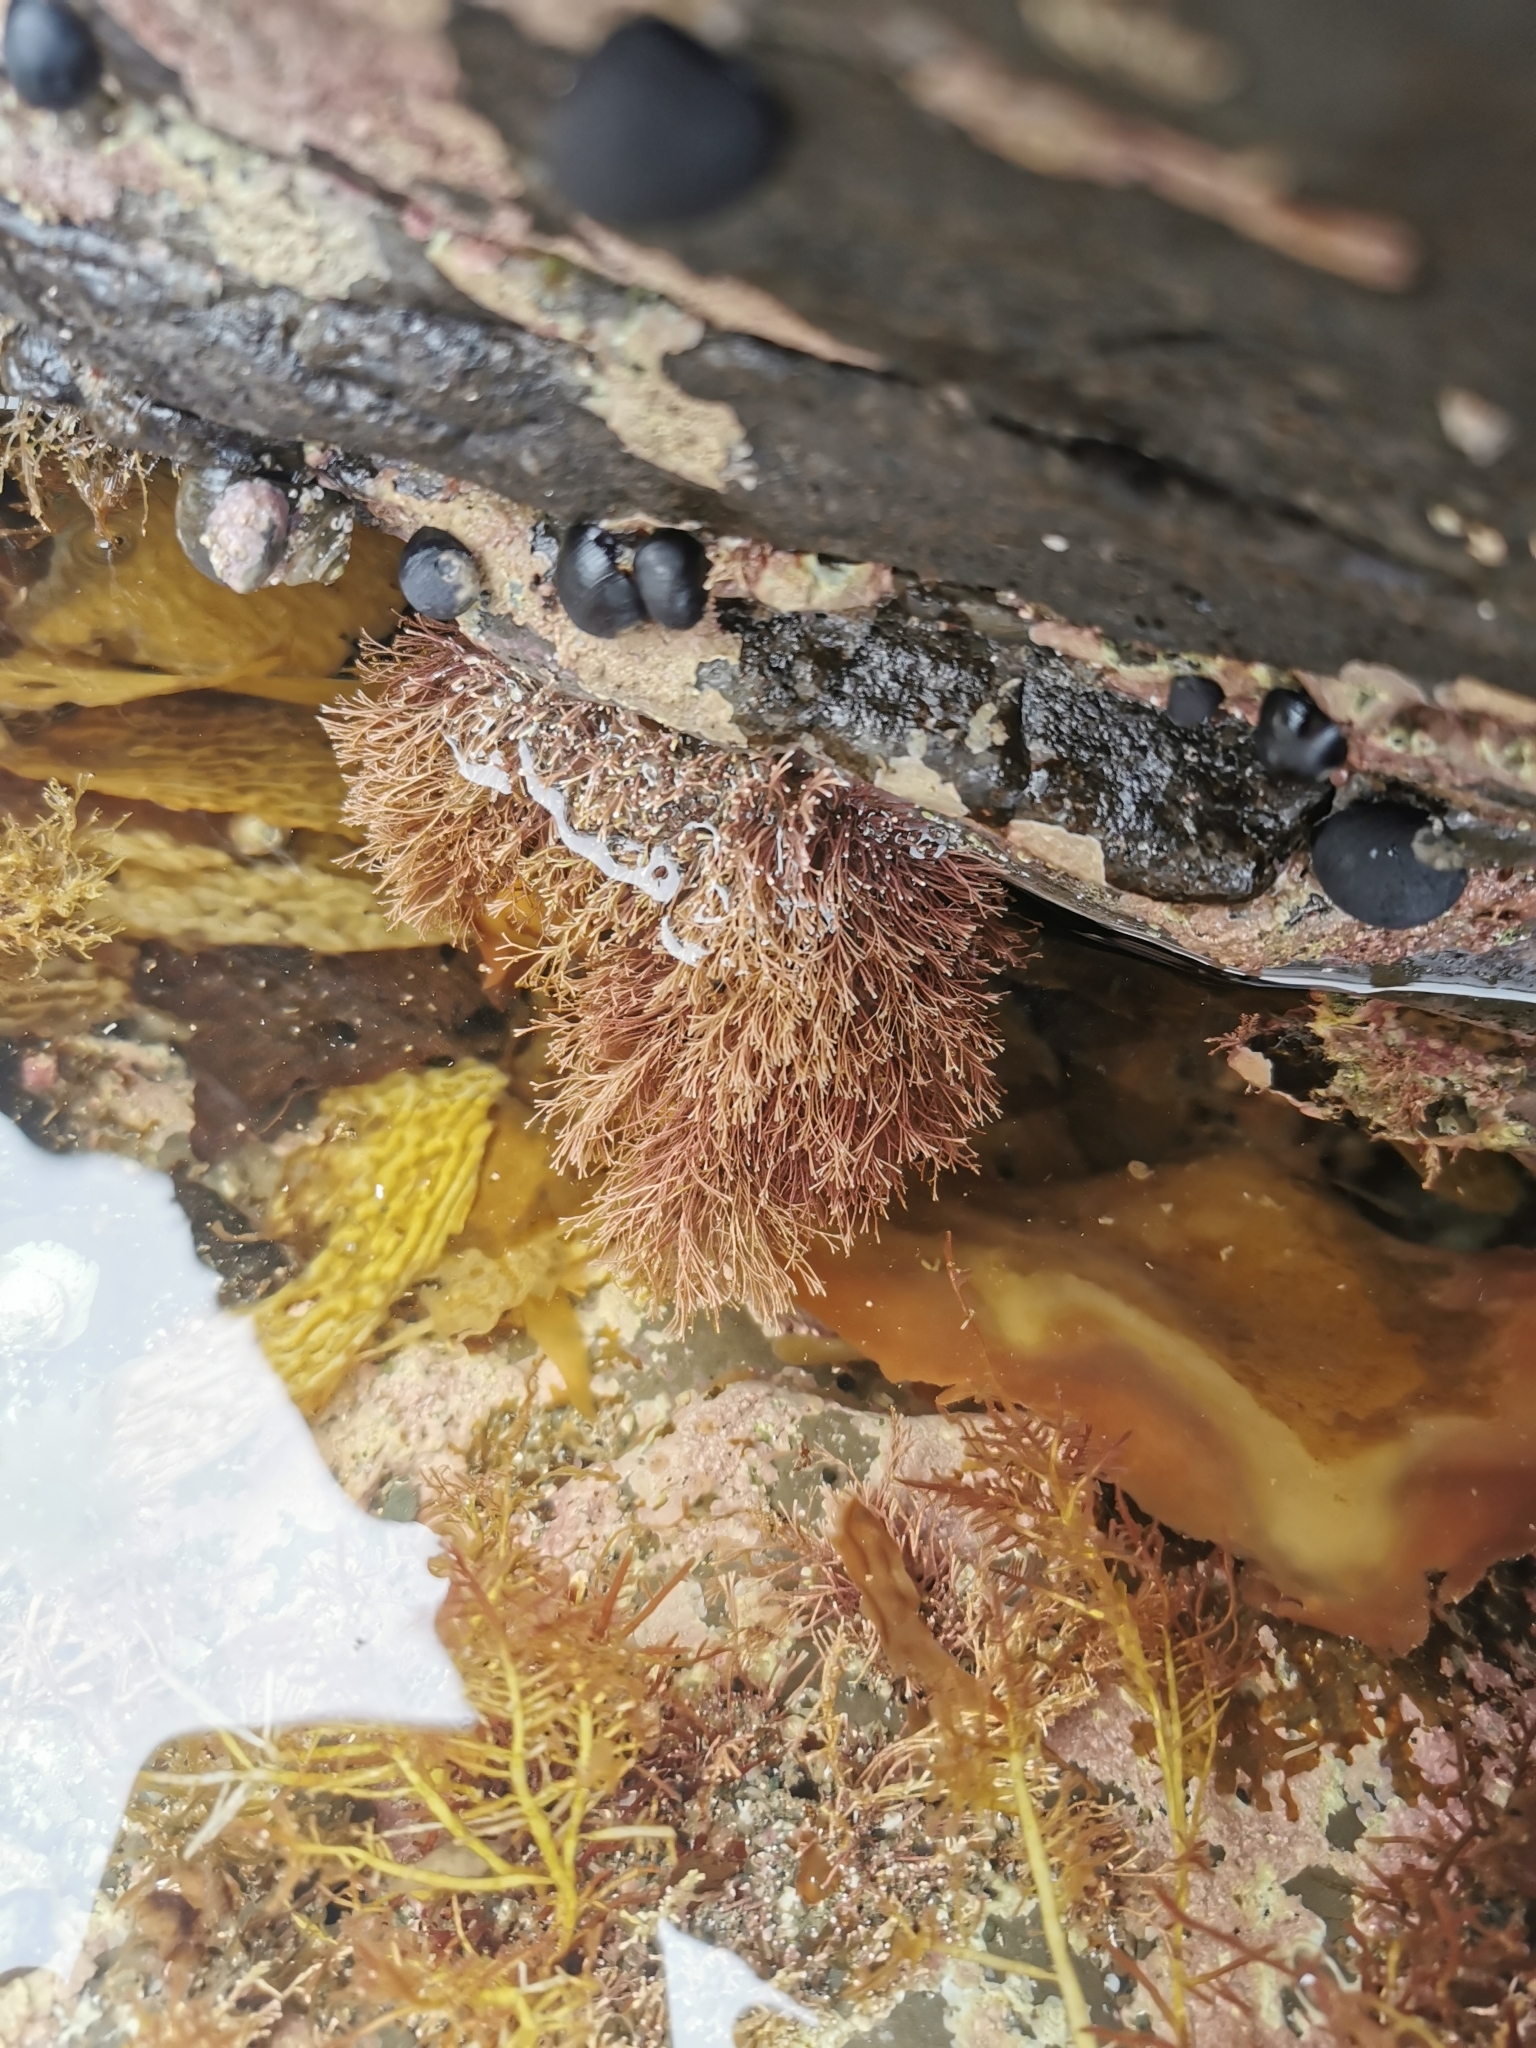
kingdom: Plantae
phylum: Rhodophyta
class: Florideophyceae
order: Corallinales
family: Corallinaceae
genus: Jania
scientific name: Jania
